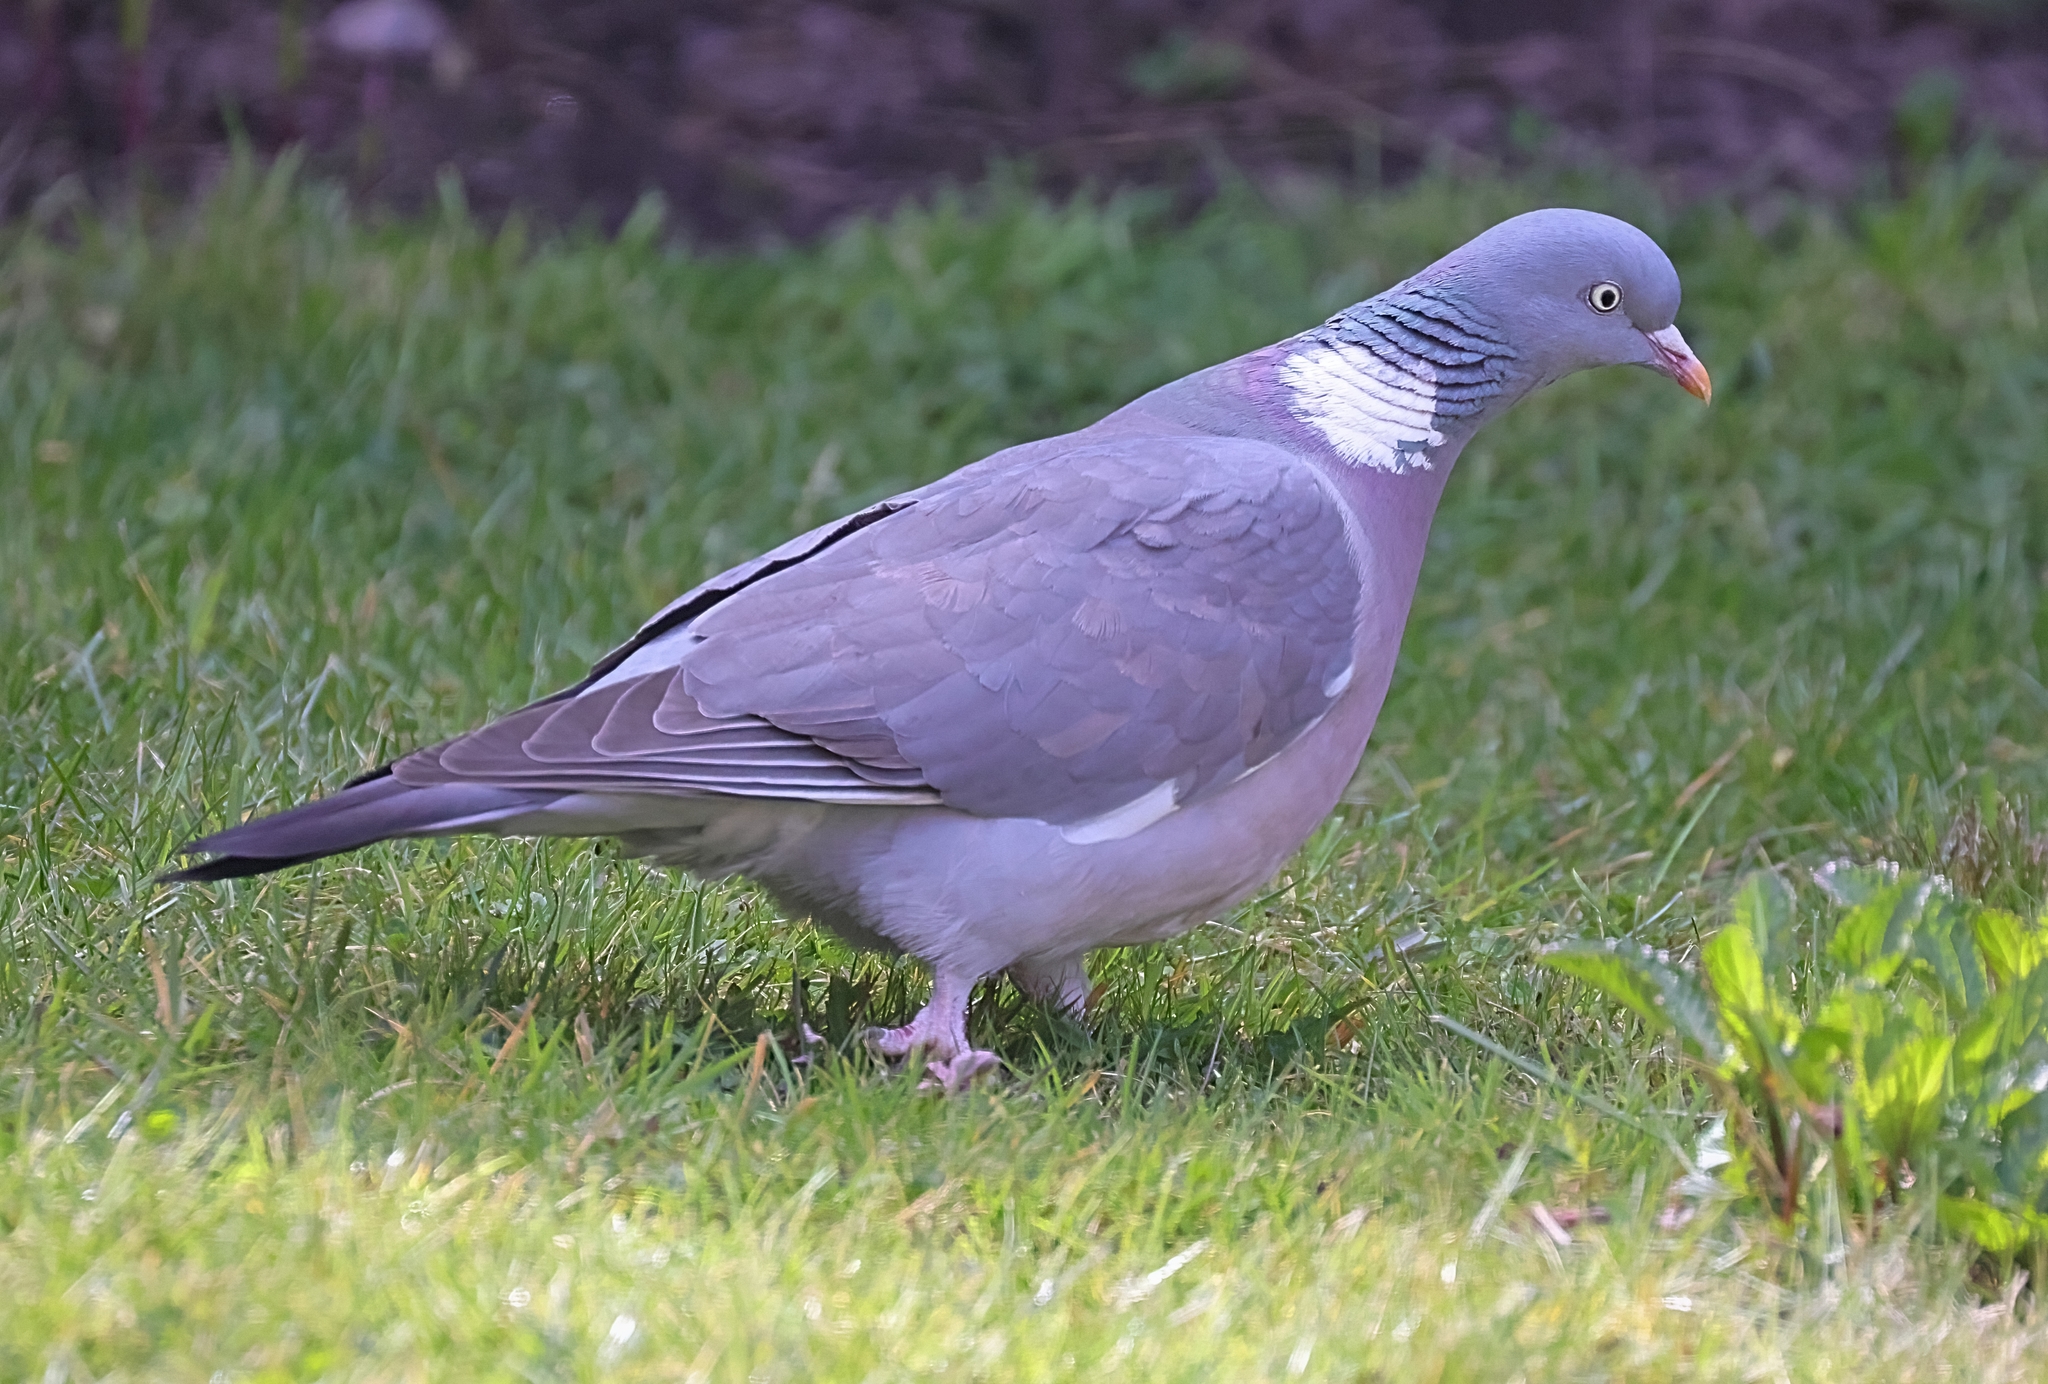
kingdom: Animalia
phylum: Chordata
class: Aves
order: Columbiformes
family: Columbidae
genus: Columba
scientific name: Columba palumbus
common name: Common wood pigeon
